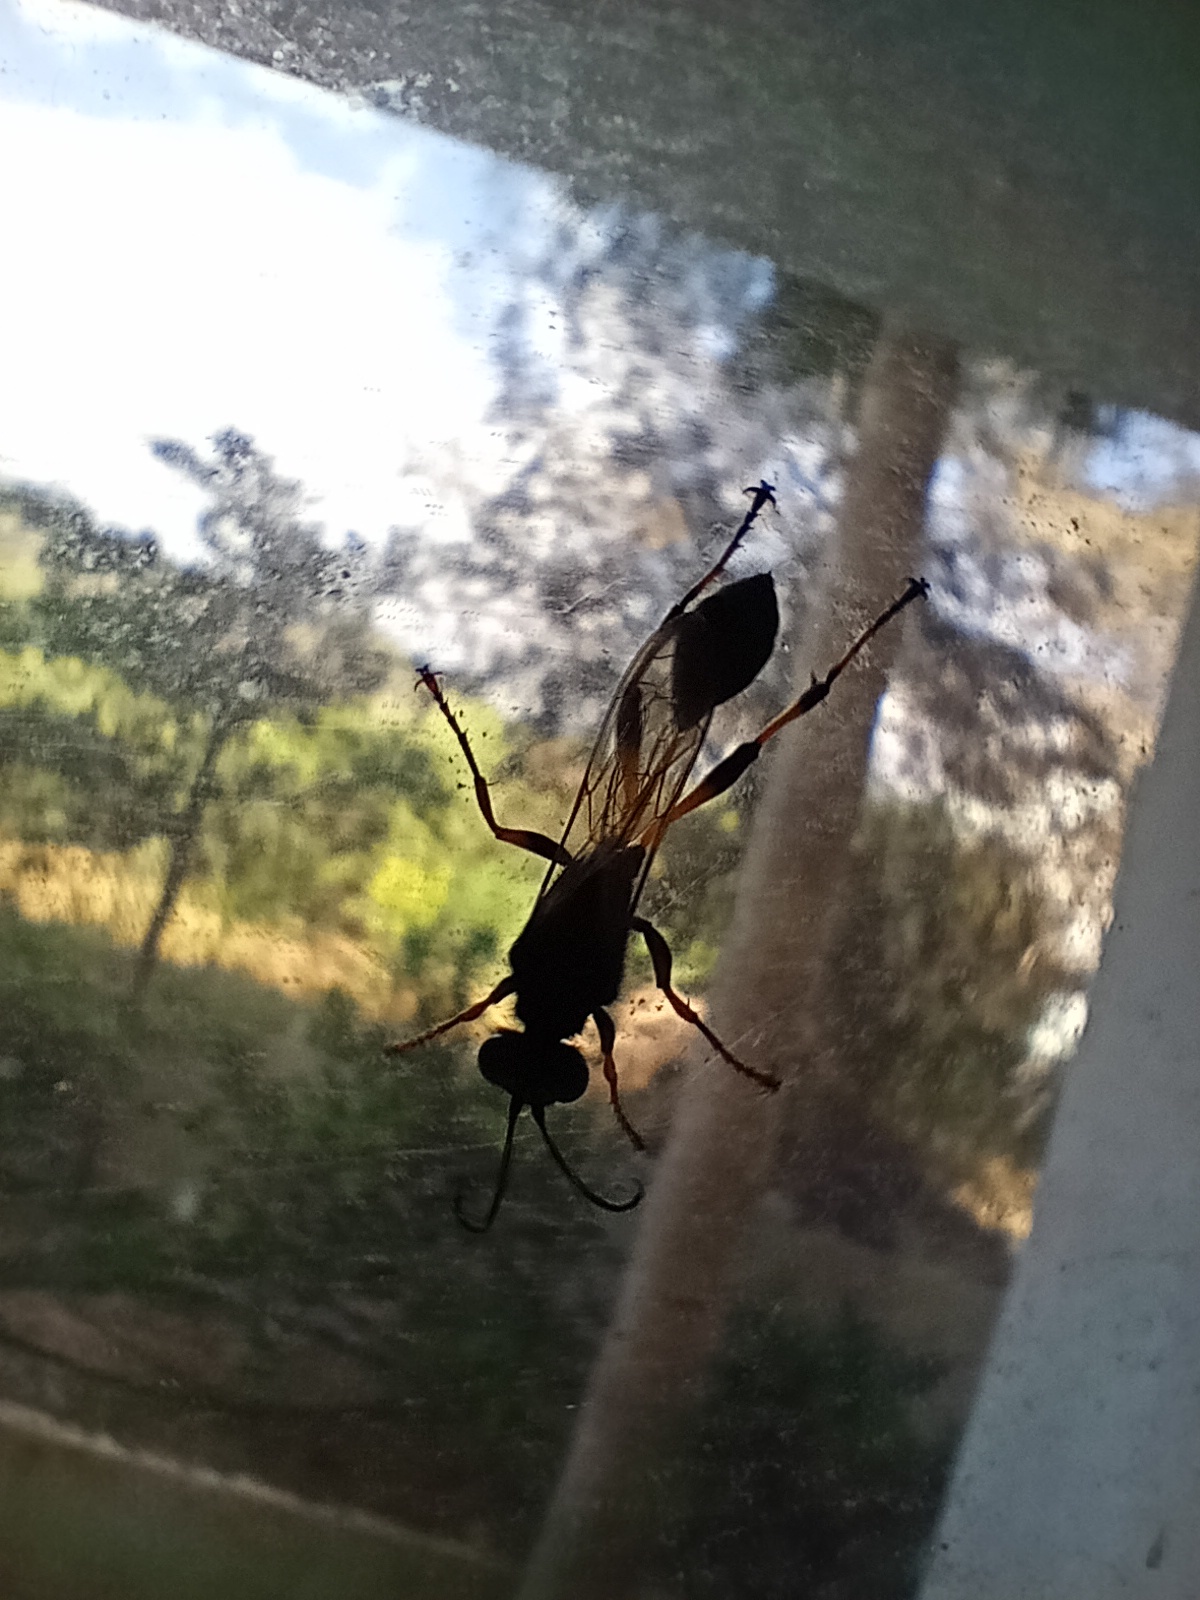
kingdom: Animalia
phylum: Arthropoda
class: Insecta
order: Hymenoptera
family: Sphecidae
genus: Sceliphron
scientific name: Sceliphron spirifex
